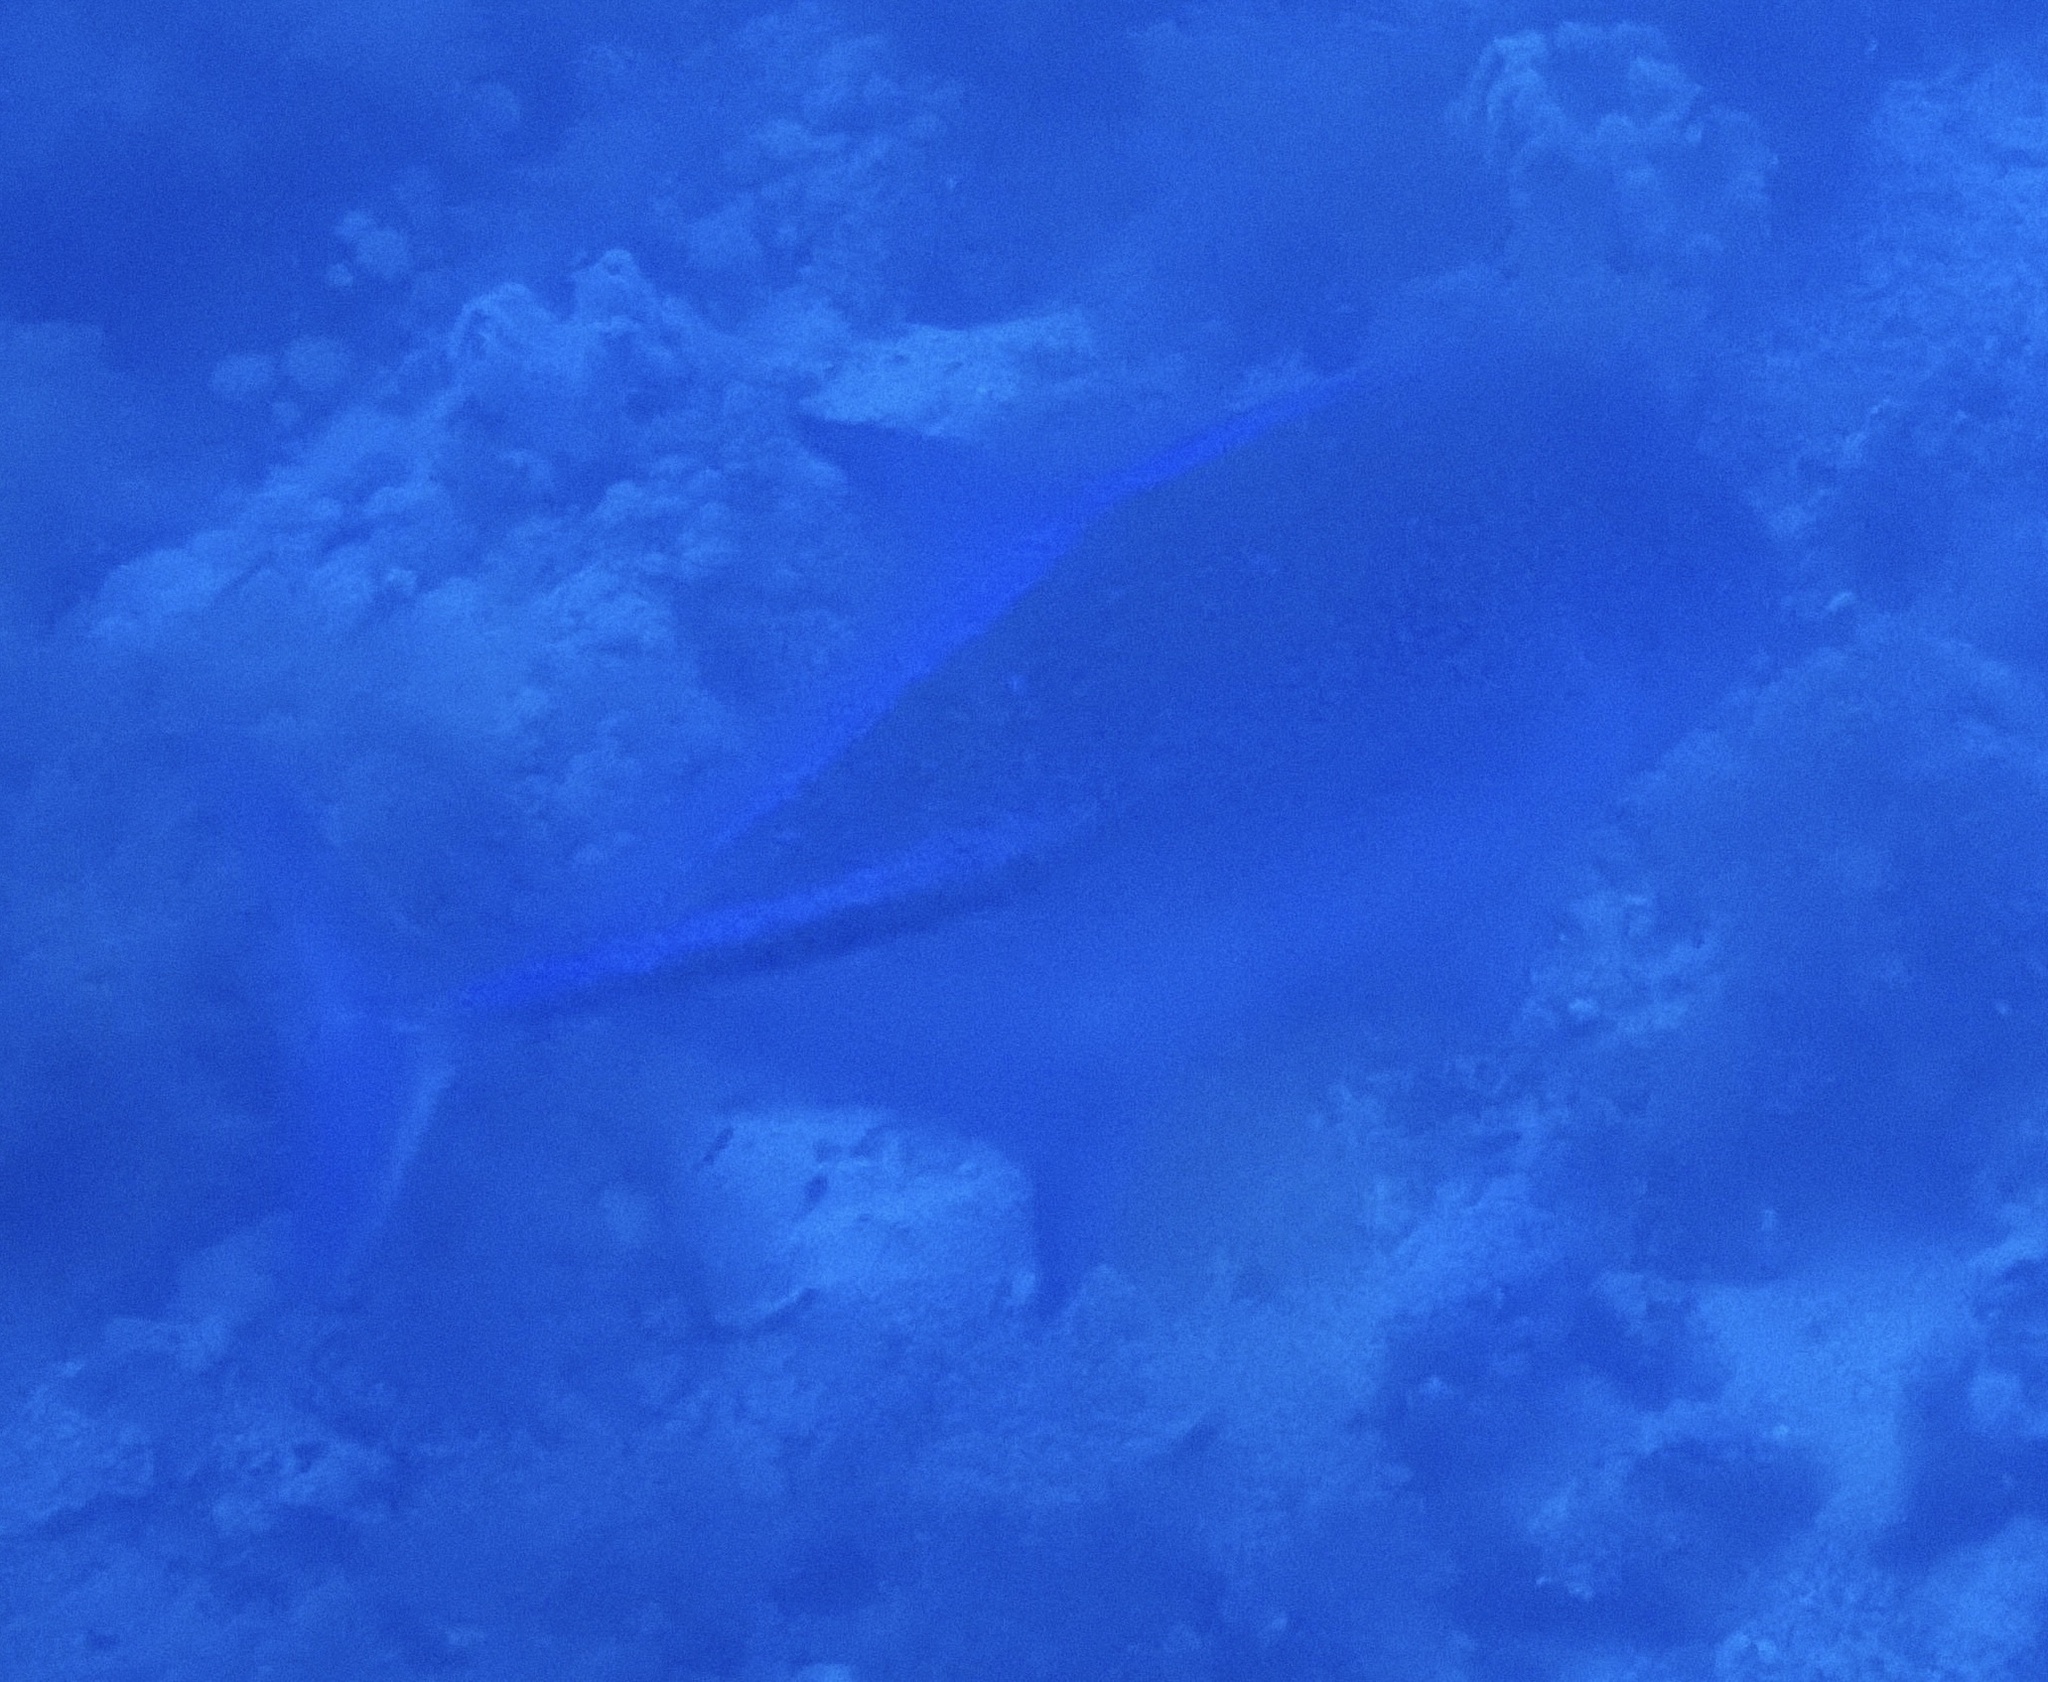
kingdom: Animalia
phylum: Chordata
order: Perciformes
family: Carangidae
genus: Caranx
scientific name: Caranx melampygus
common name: Bluefin trevally
